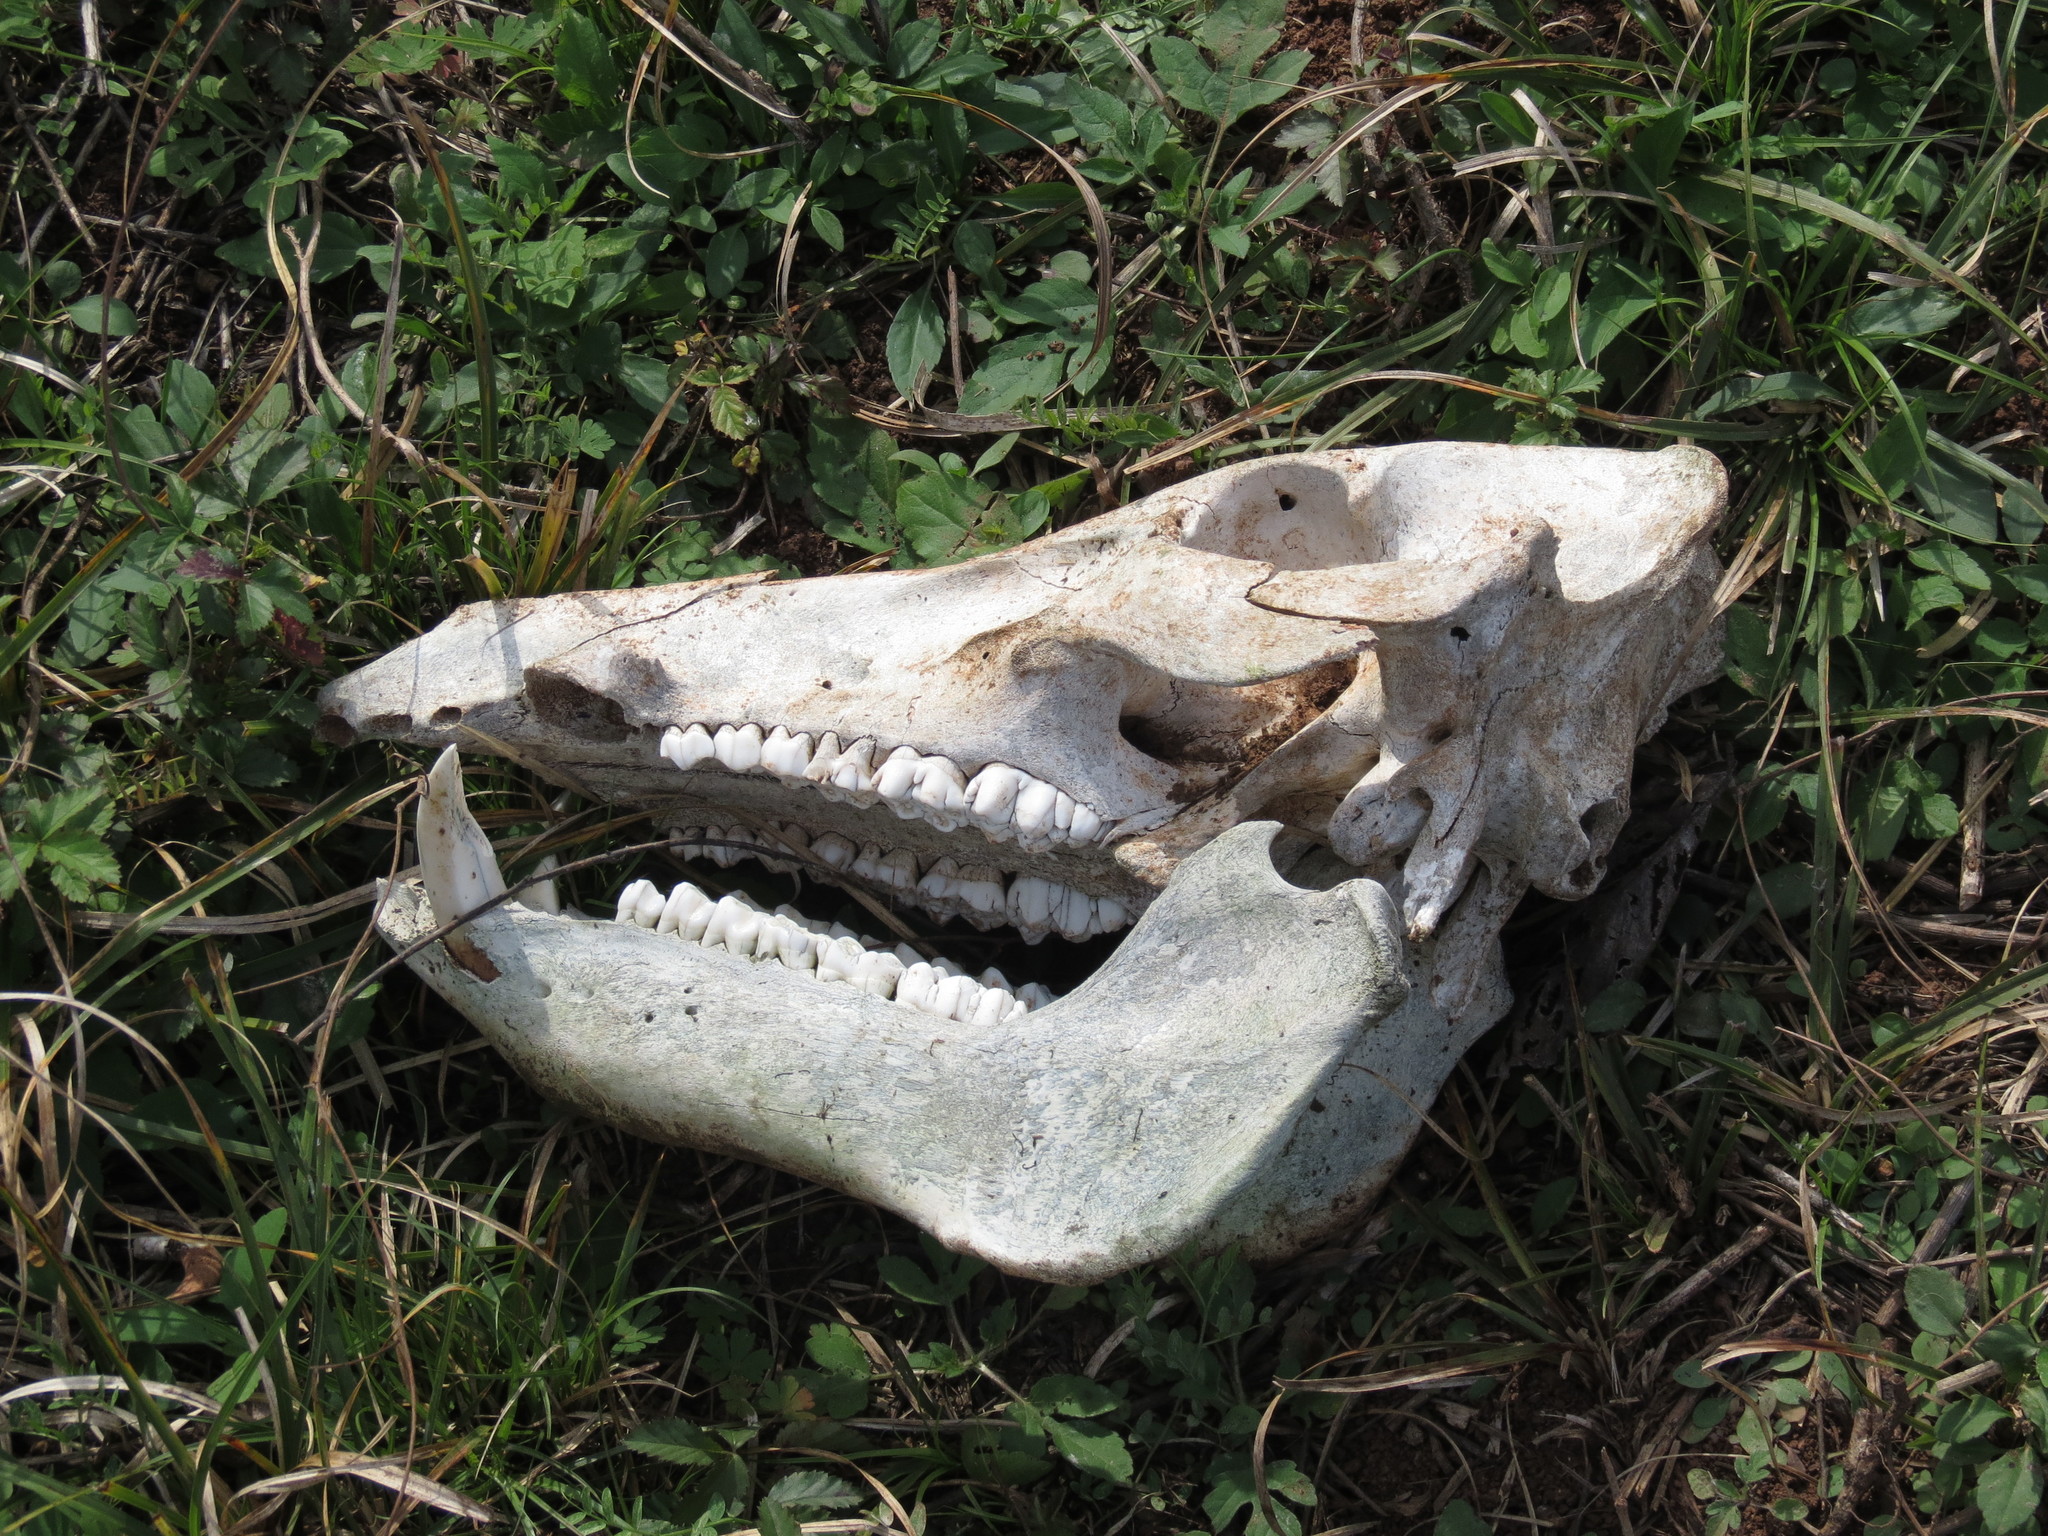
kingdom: Animalia
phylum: Chordata
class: Mammalia
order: Artiodactyla
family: Suidae
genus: Sus
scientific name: Sus scrofa
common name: Wild boar
